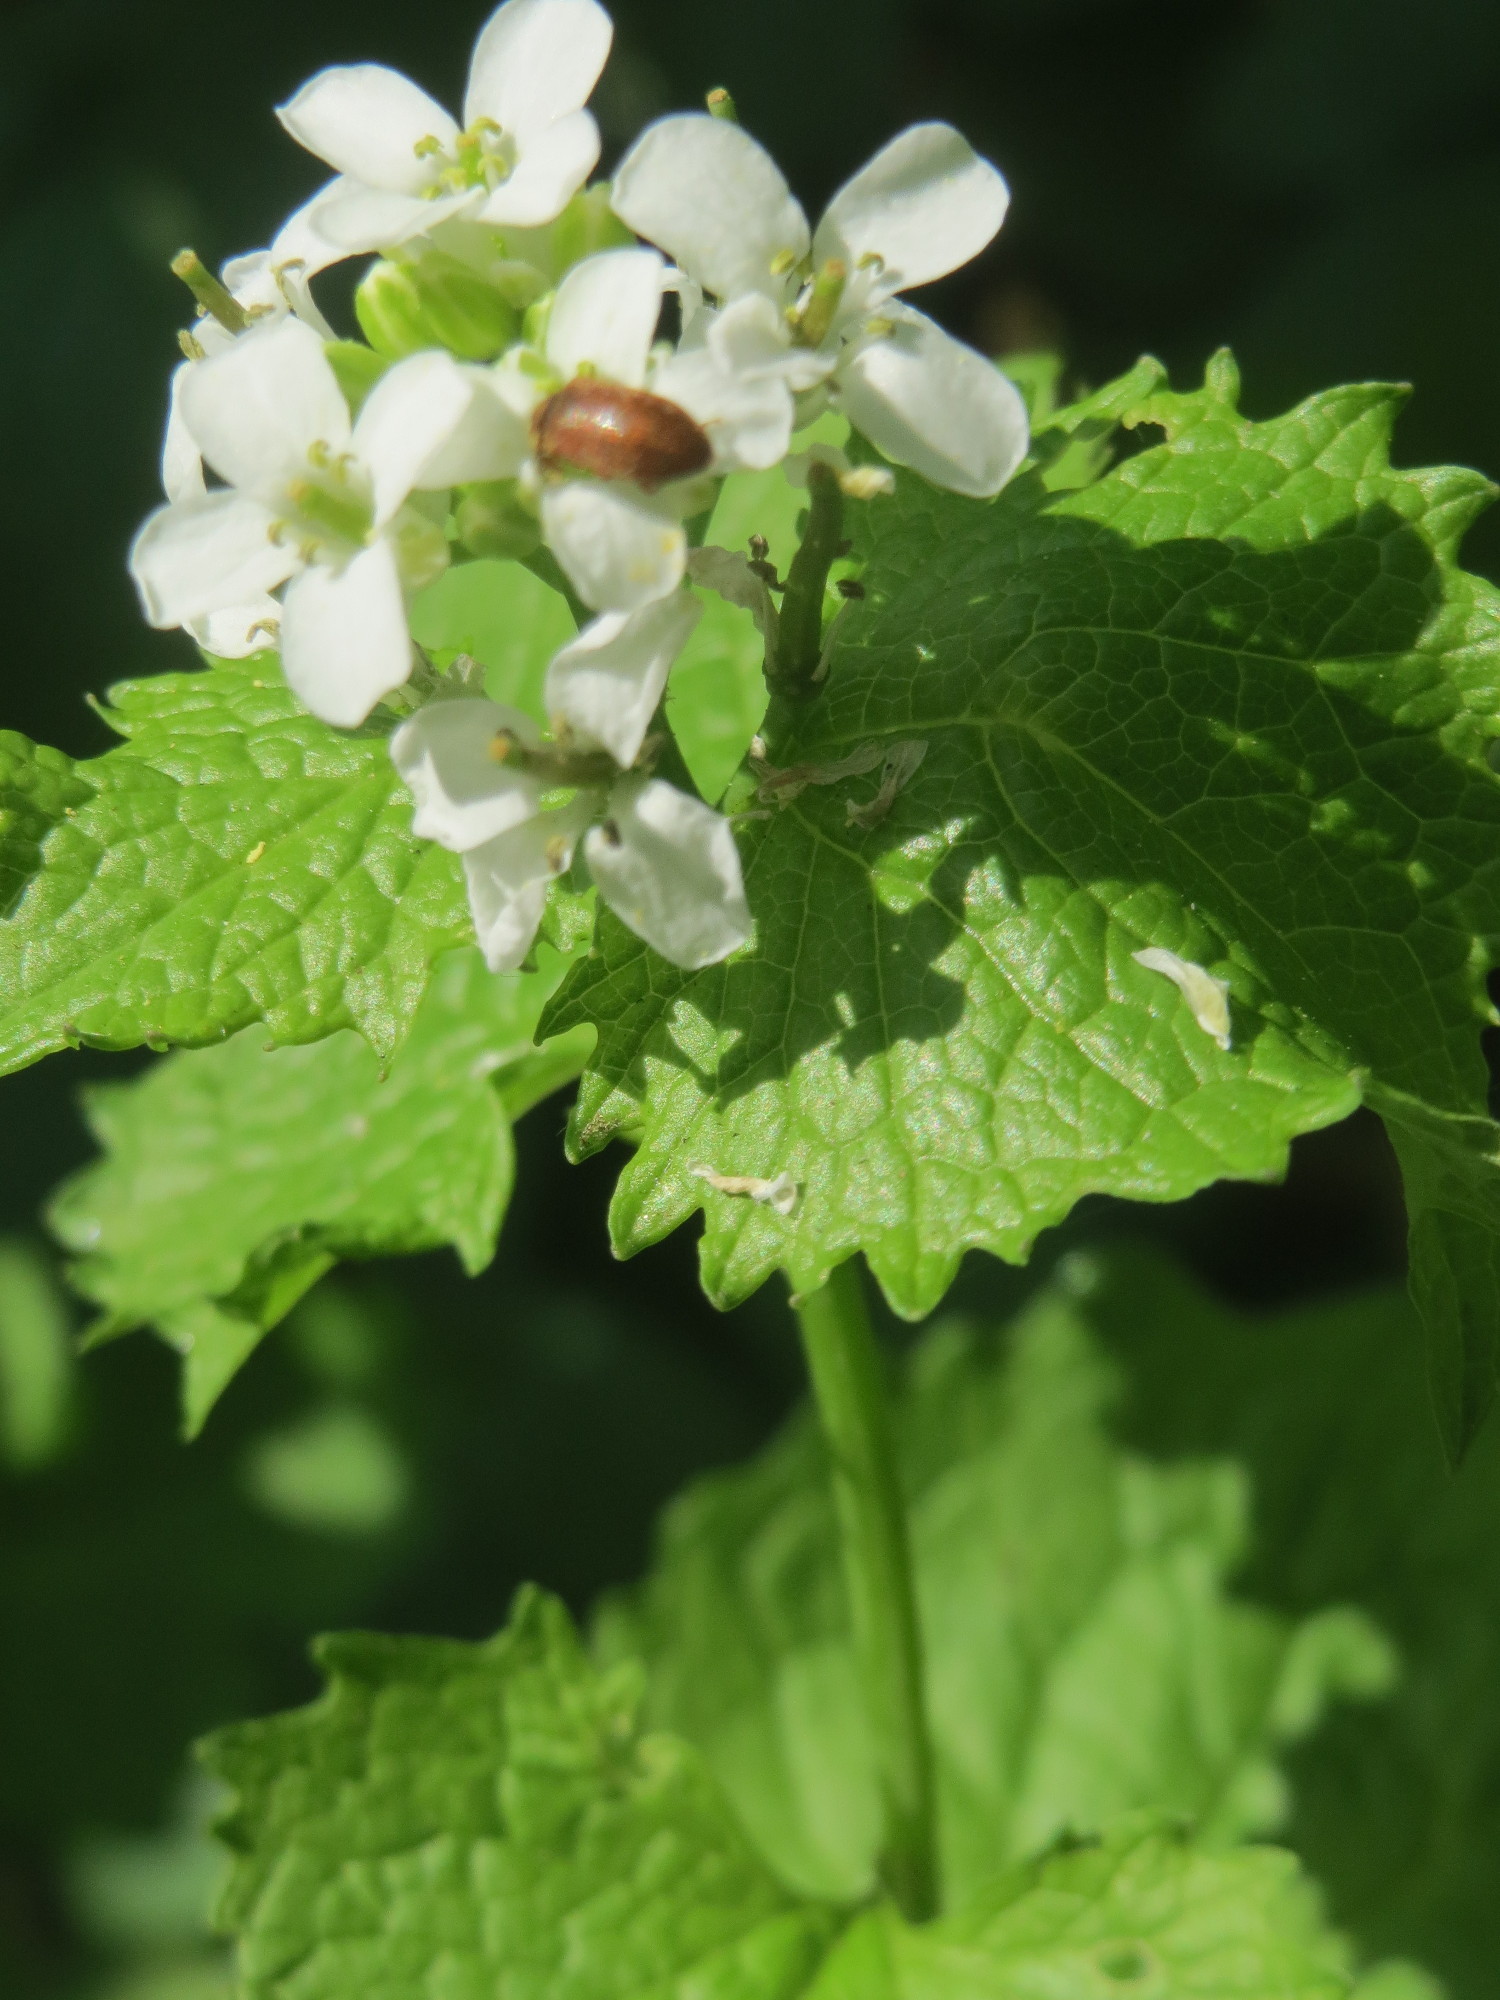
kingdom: Plantae
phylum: Tracheophyta
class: Magnoliopsida
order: Brassicales
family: Brassicaceae
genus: Alliaria
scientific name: Alliaria petiolata
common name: Garlic mustard
